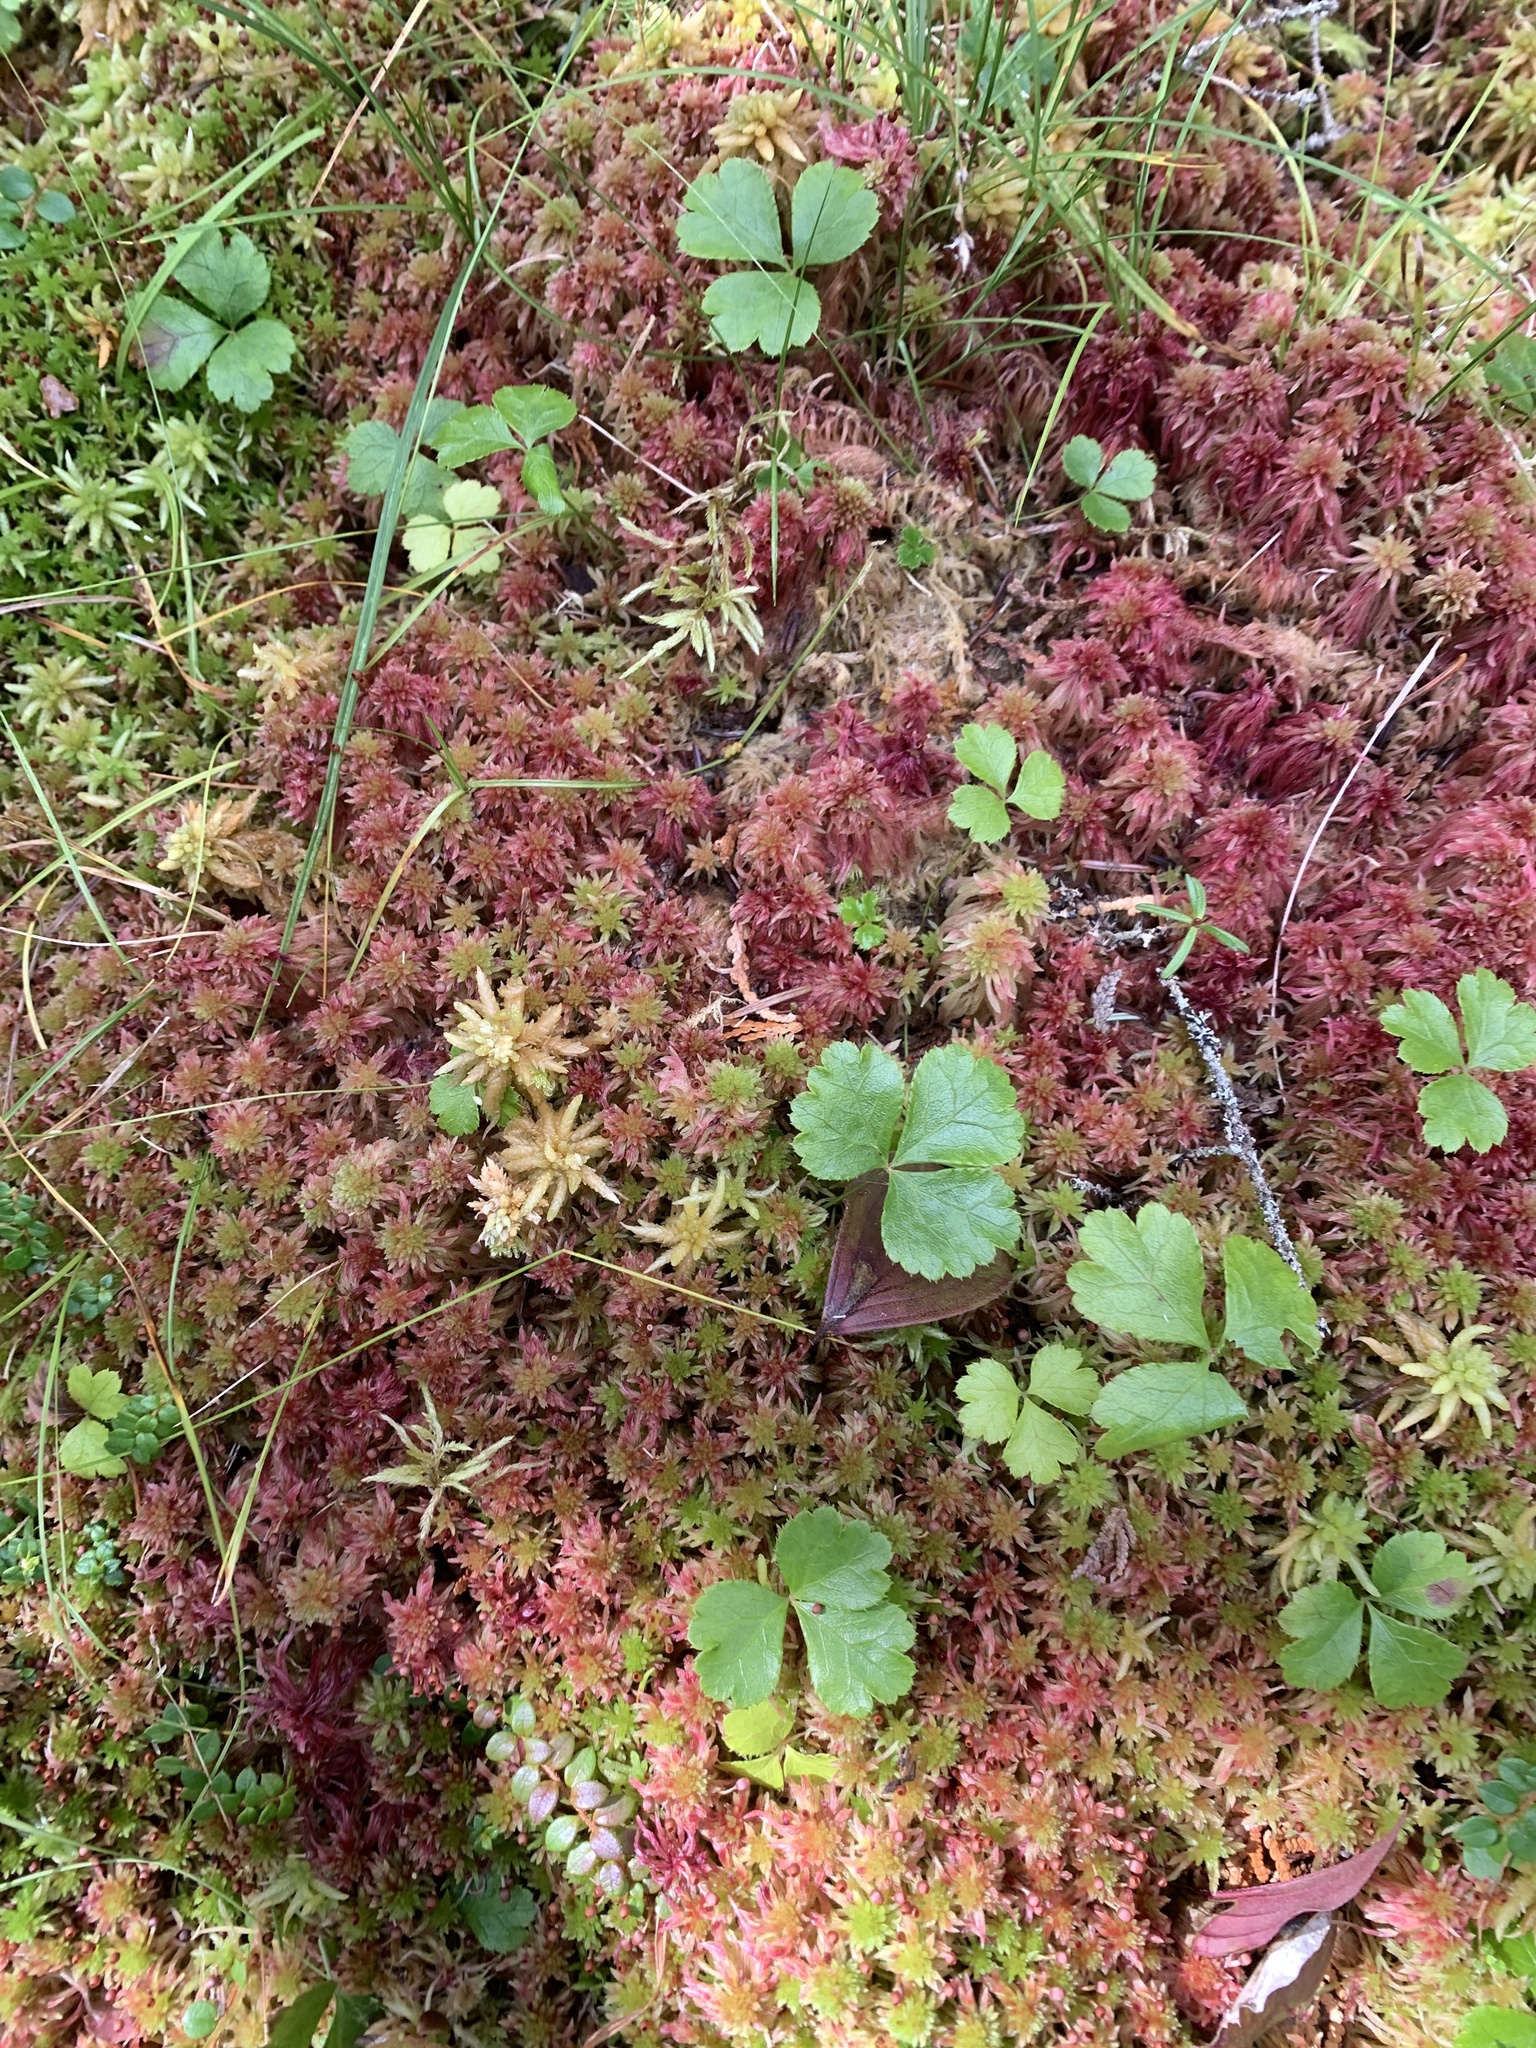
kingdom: Plantae
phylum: Tracheophyta
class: Magnoliopsida
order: Ranunculales
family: Ranunculaceae
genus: Coptis
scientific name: Coptis trifolia
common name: Canker-root
